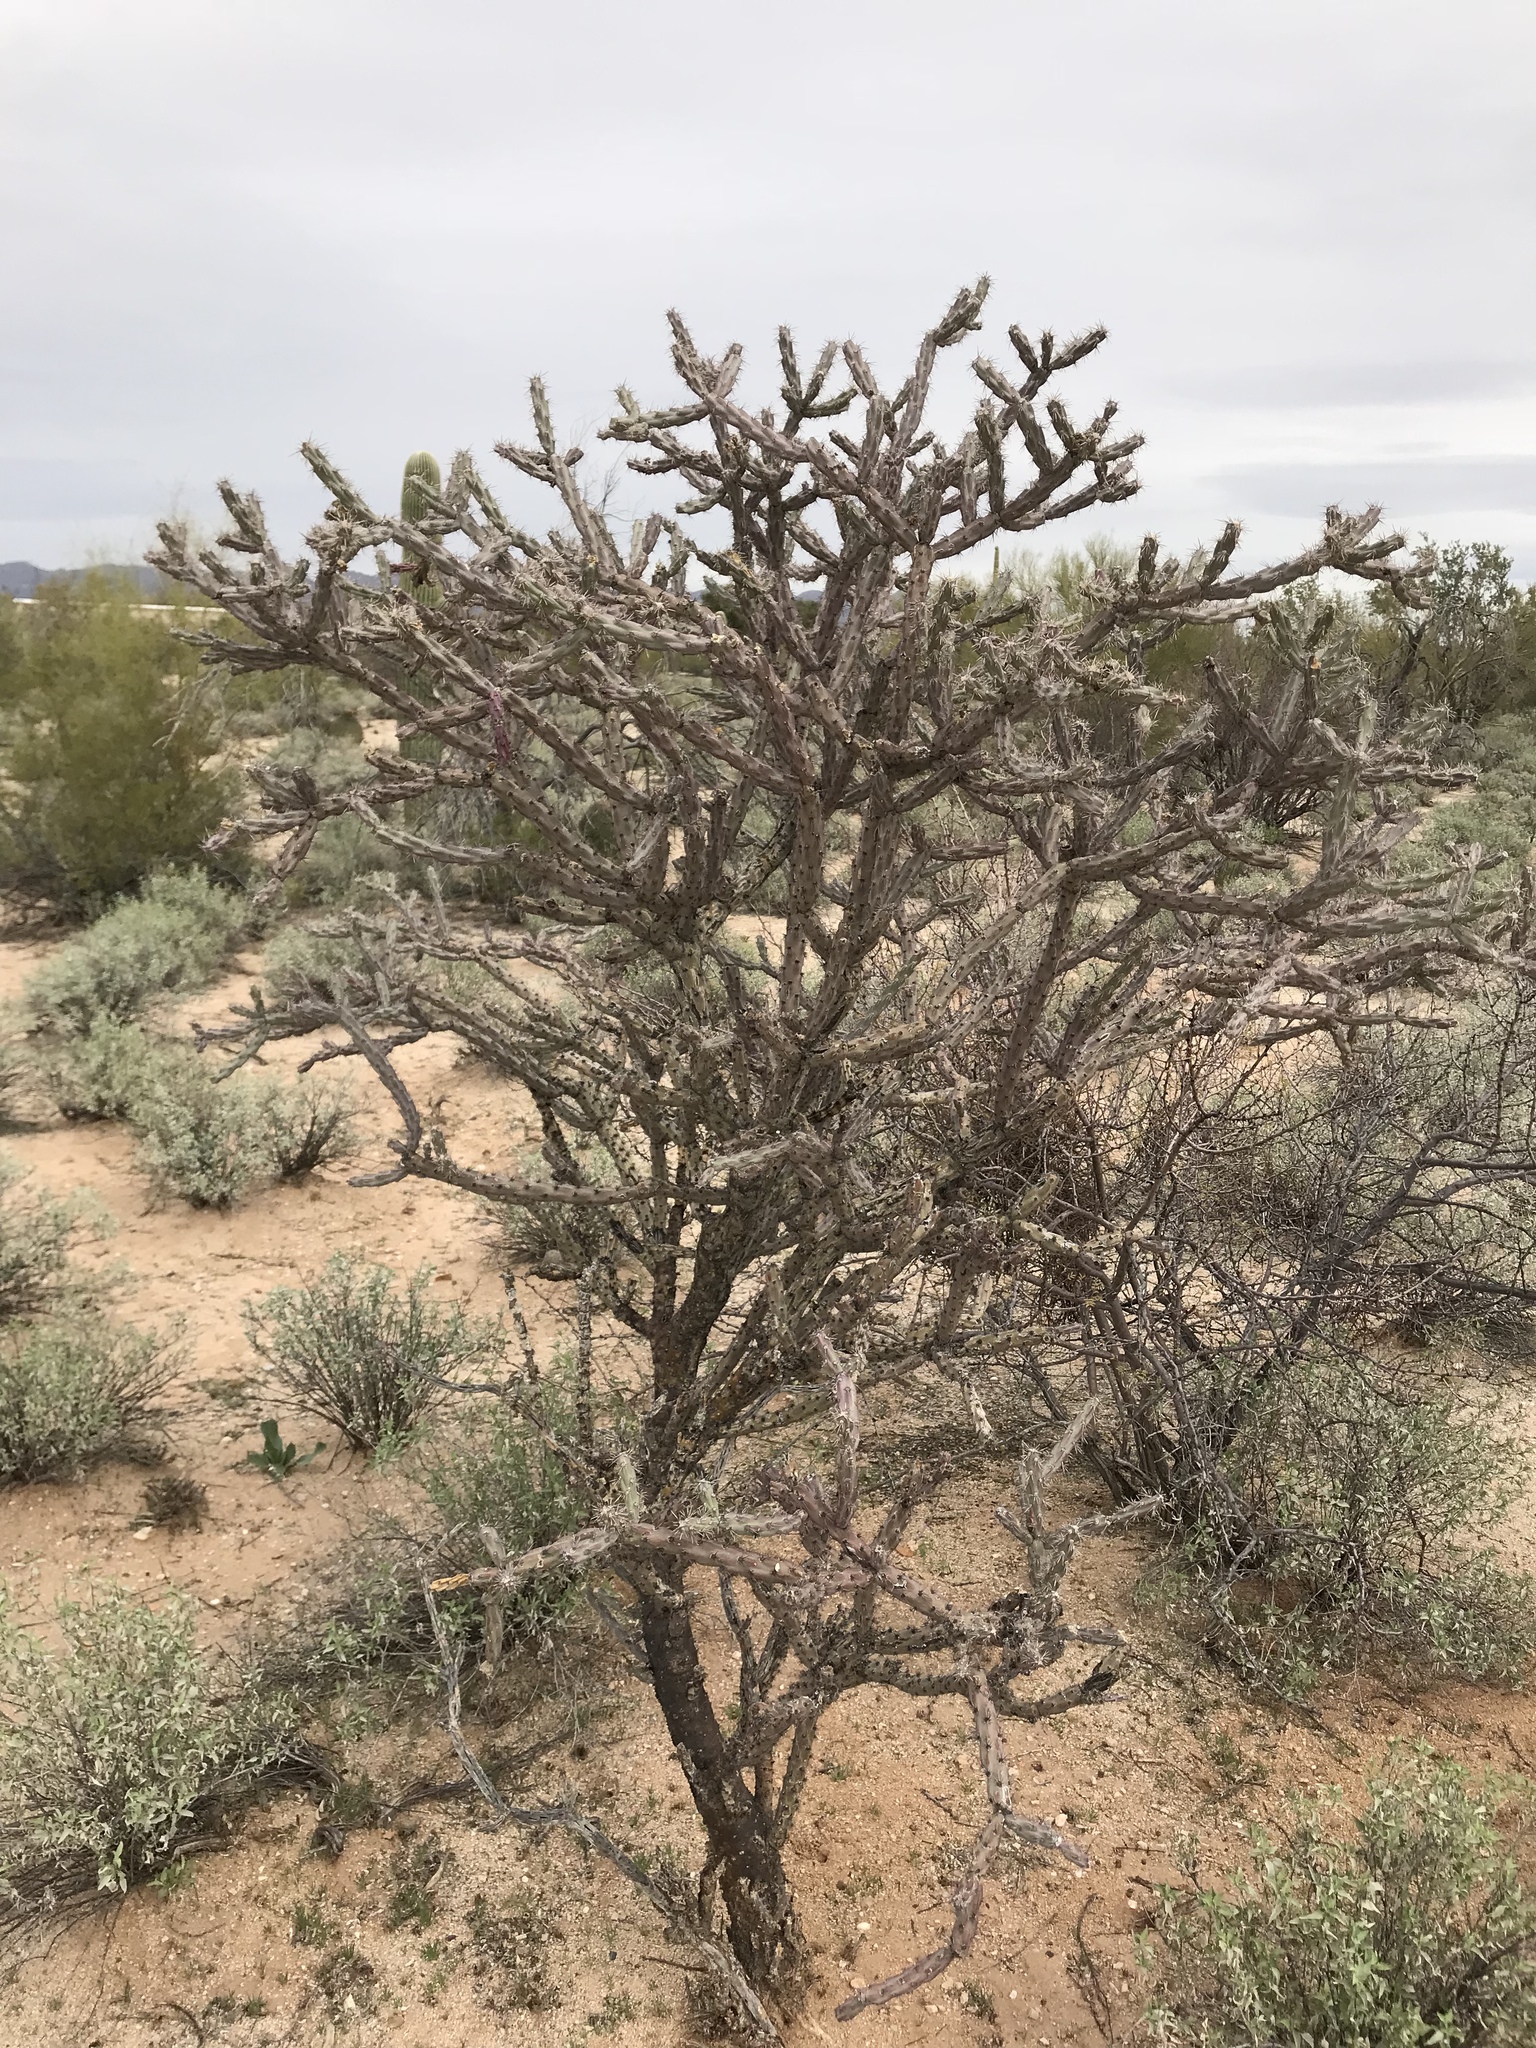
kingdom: Plantae
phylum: Tracheophyta
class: Magnoliopsida
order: Caryophyllales
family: Cactaceae
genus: Cylindropuntia
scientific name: Cylindropuntia acanthocarpa
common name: Buckhorn cholla
